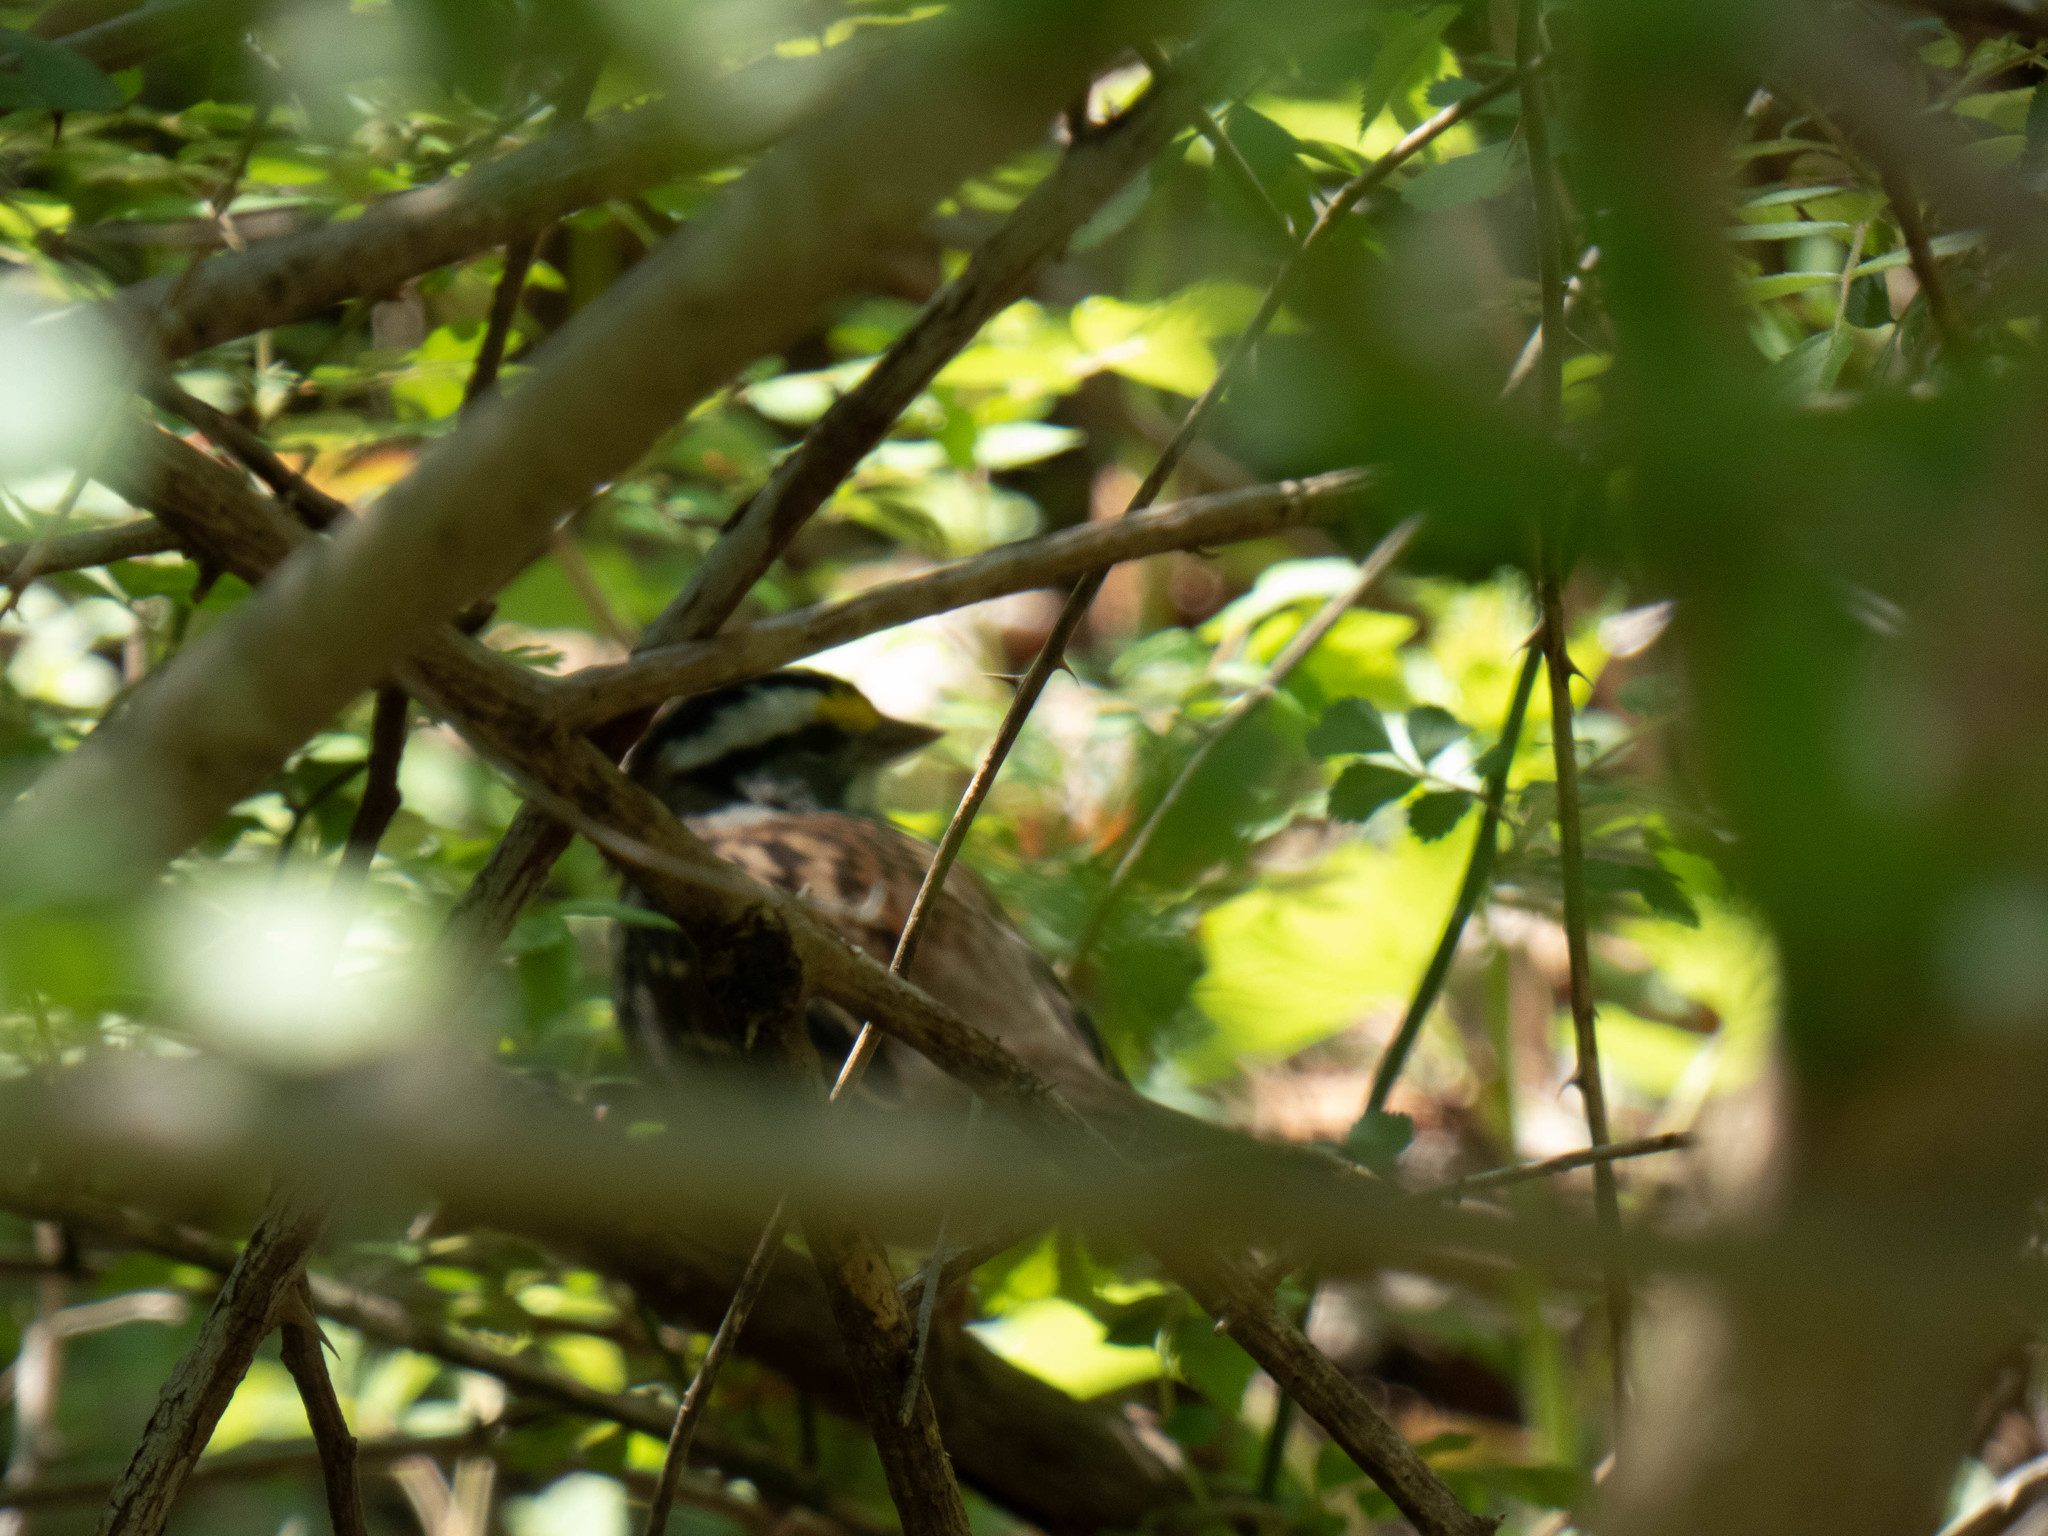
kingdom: Animalia
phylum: Chordata
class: Aves
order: Passeriformes
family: Passerellidae
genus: Zonotrichia
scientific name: Zonotrichia albicollis
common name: White-throated sparrow
